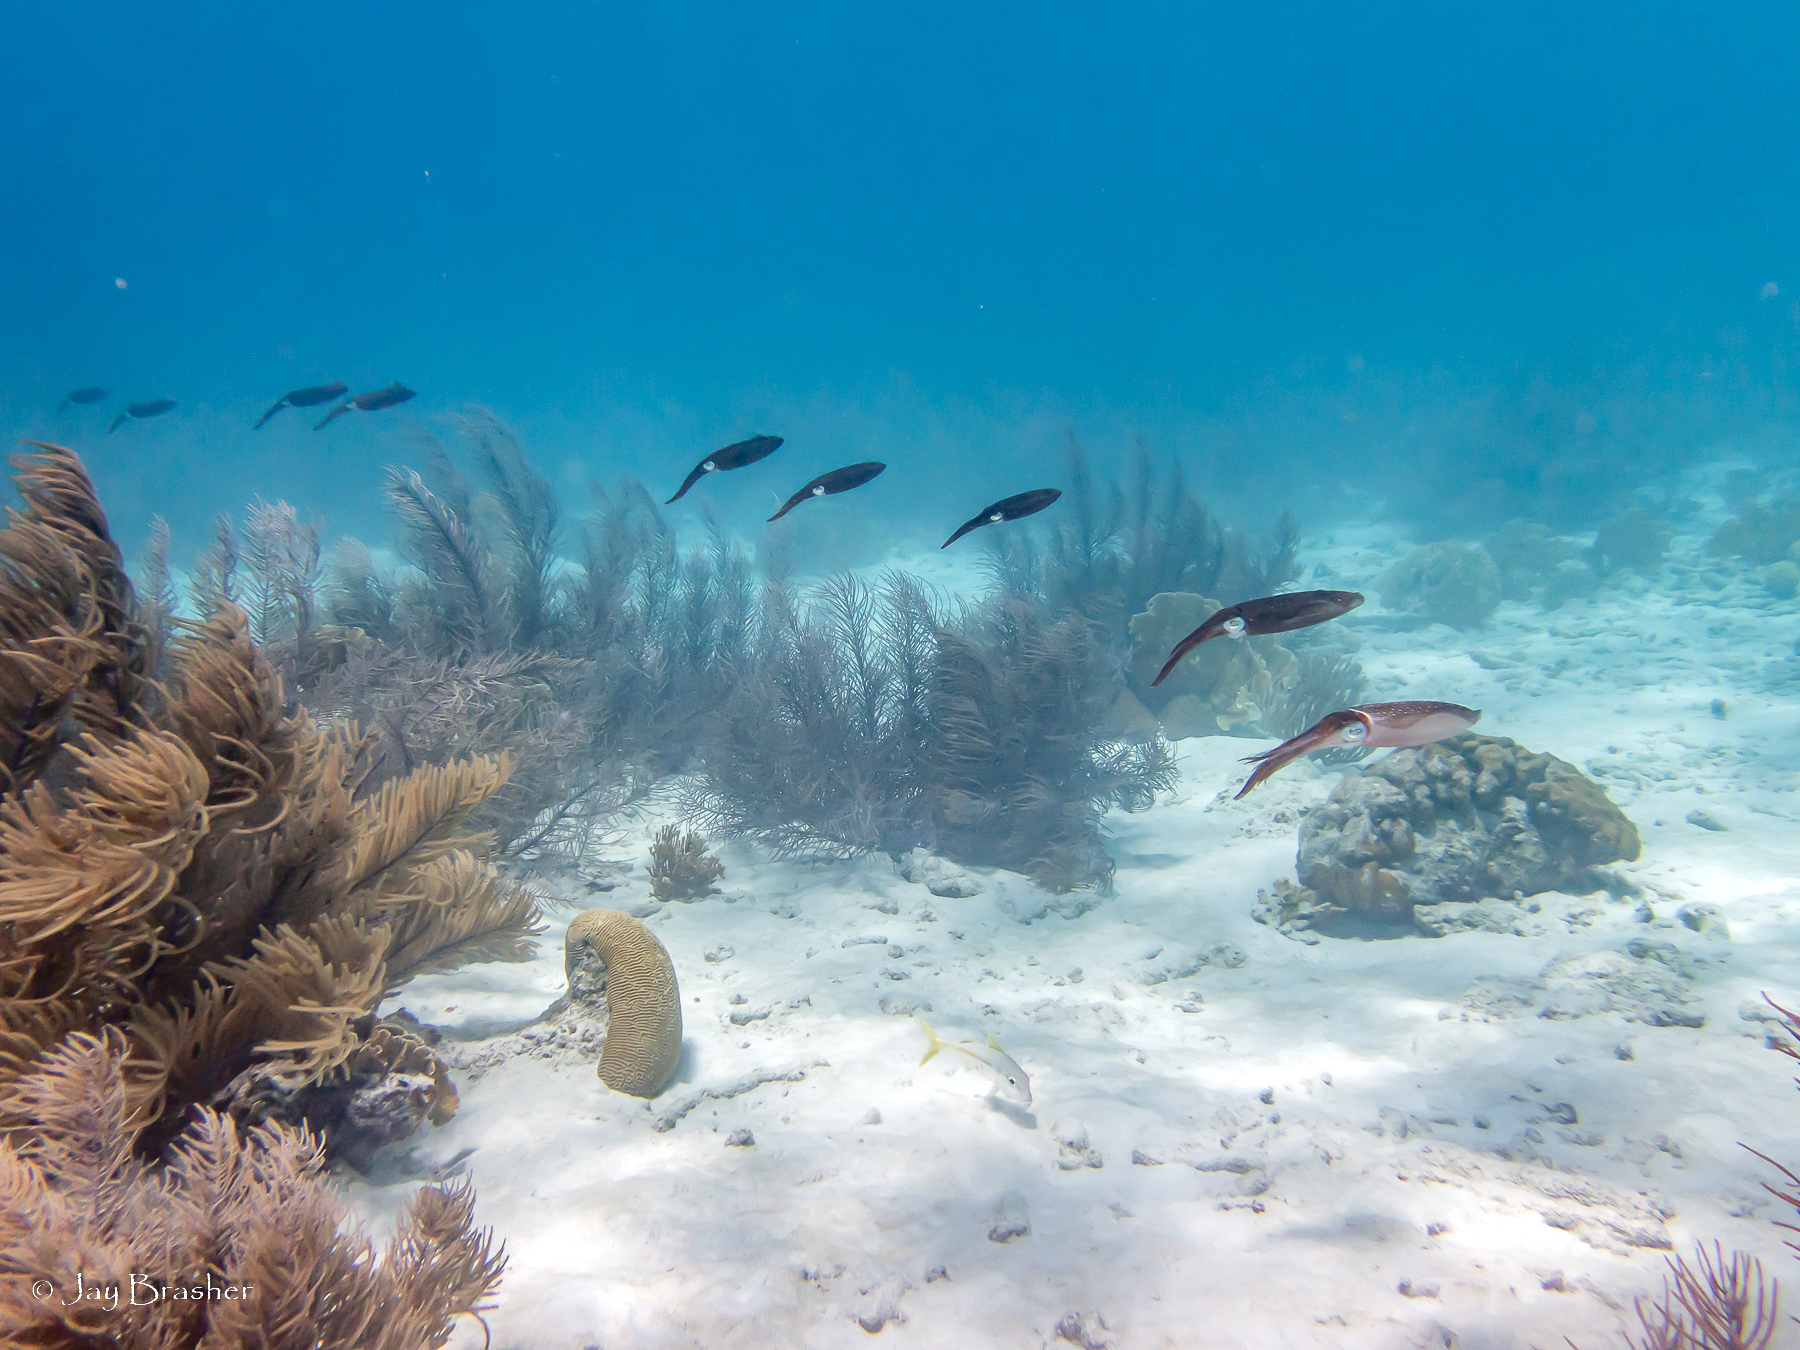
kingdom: Animalia
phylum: Mollusca
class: Cephalopoda
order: Myopsida
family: Loliginidae
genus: Sepioteuthis
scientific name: Sepioteuthis sepioidea
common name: Caribbean reef squid
